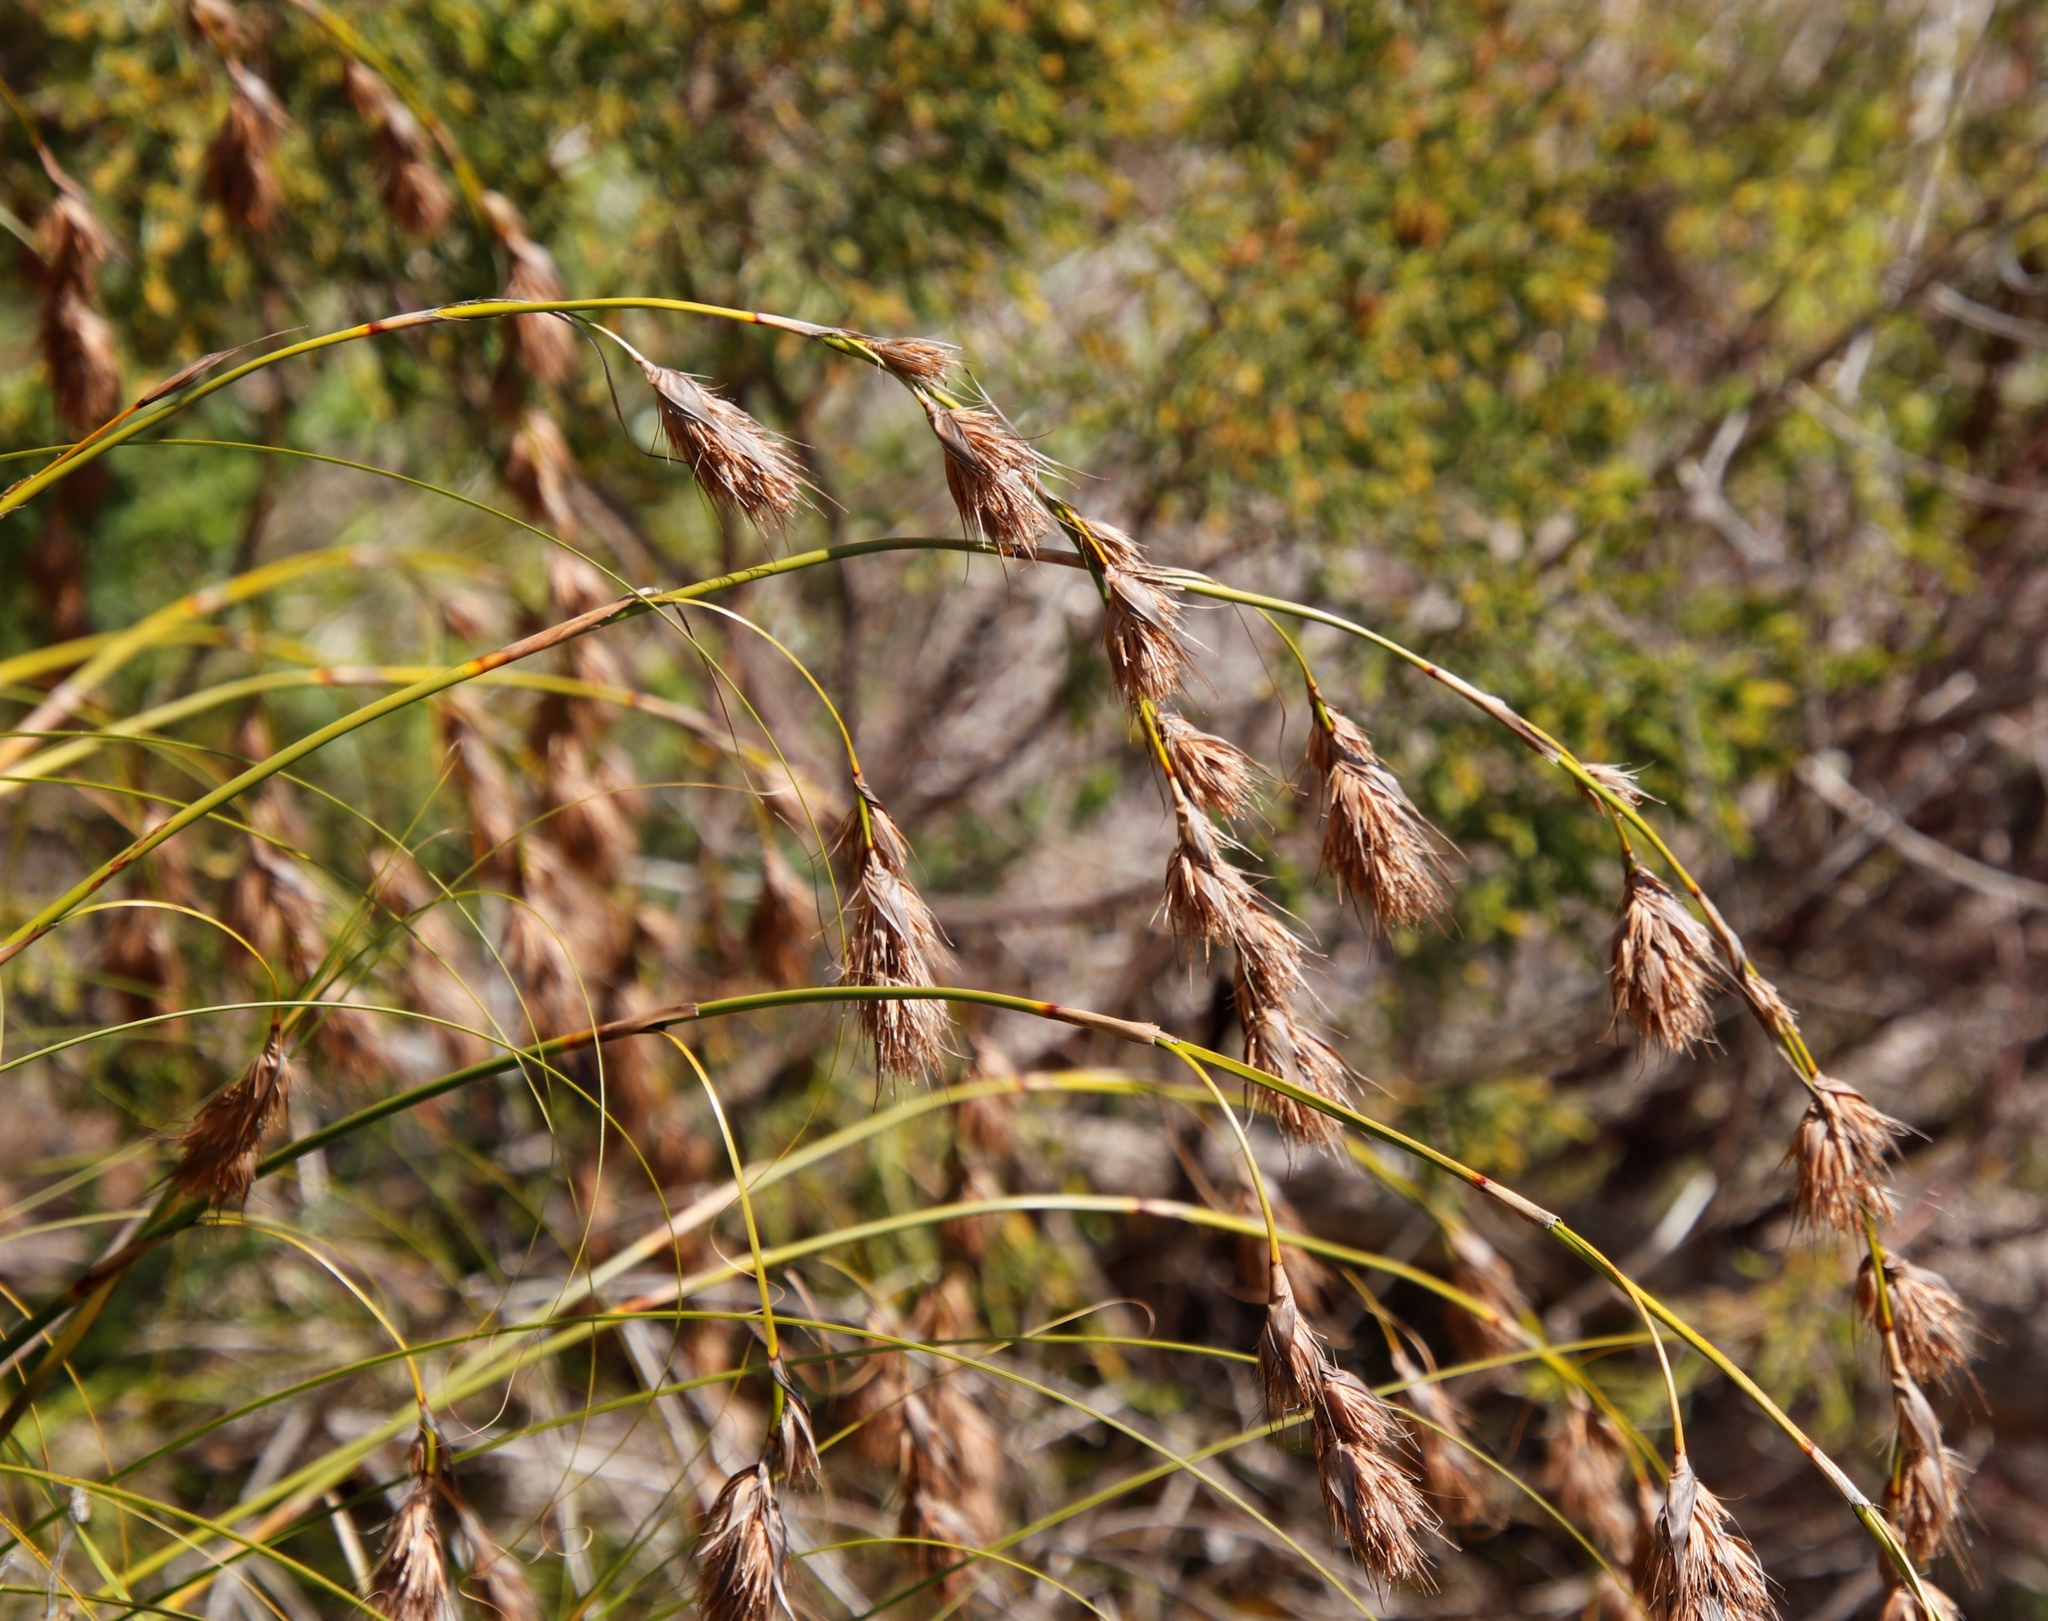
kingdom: Plantae
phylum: Tracheophyta
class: Liliopsida
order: Poales
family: Cyperaceae
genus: Tetraria
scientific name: Tetraria bromoides
